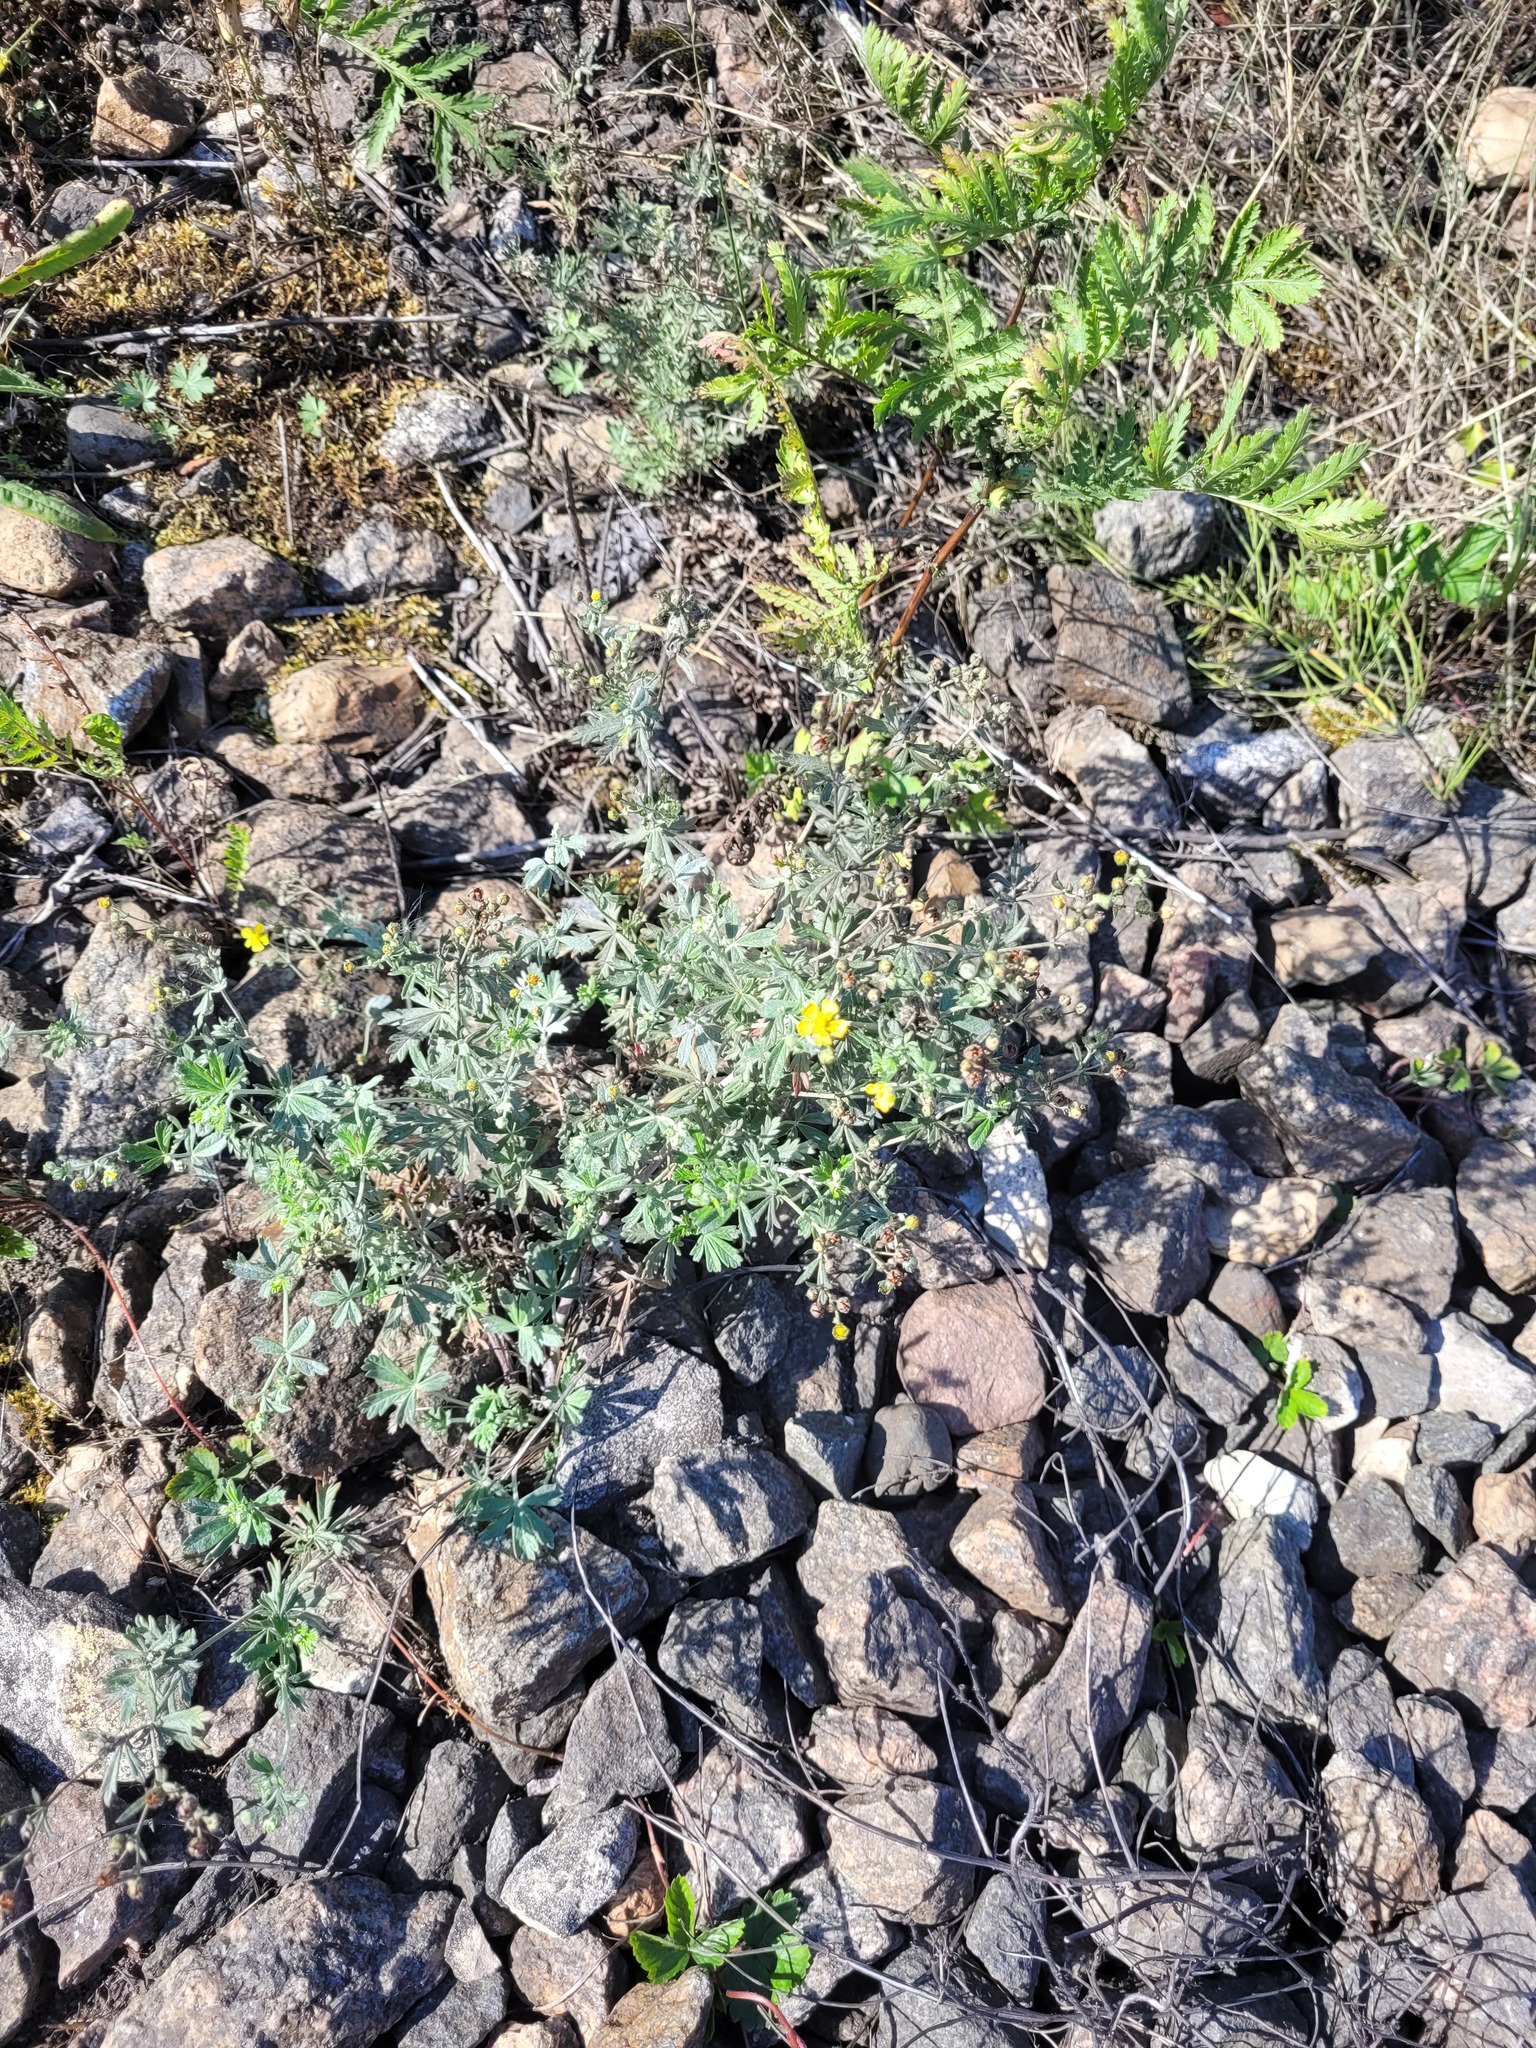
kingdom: Plantae
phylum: Tracheophyta
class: Magnoliopsida
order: Rosales
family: Rosaceae
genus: Potentilla
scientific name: Potentilla argentea
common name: Hoary cinquefoil
